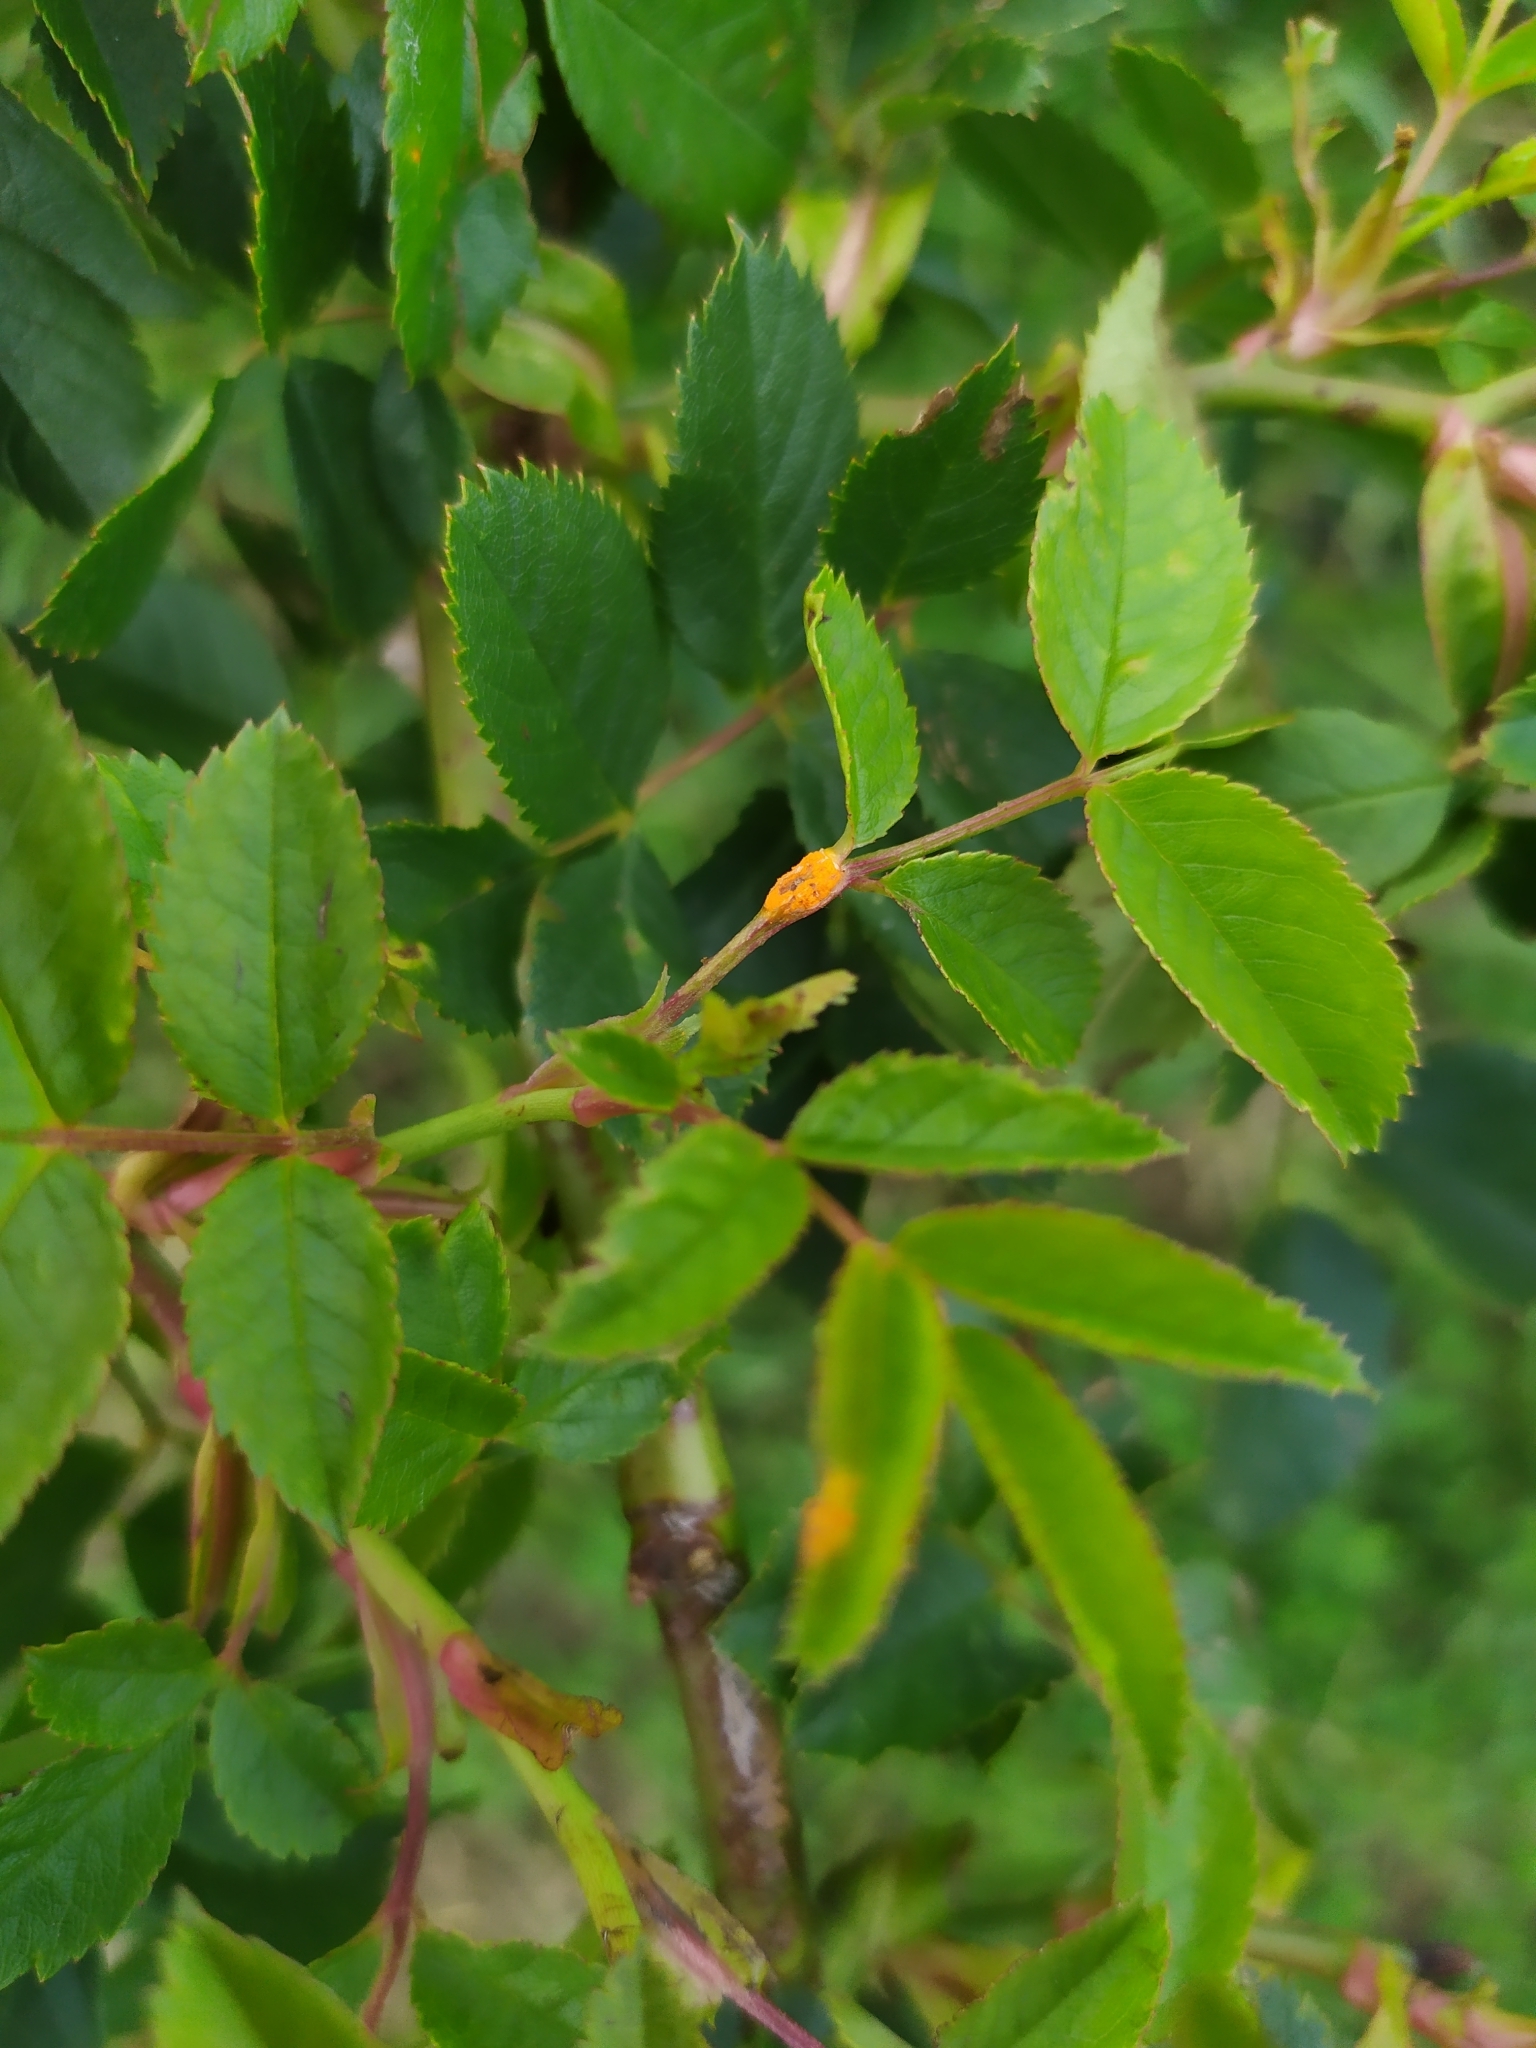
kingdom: Fungi
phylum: Basidiomycota
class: Pucciniomycetes
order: Pucciniales
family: Phragmidiaceae
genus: Phragmidium
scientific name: Phragmidium tuberculatum
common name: Rose rust
